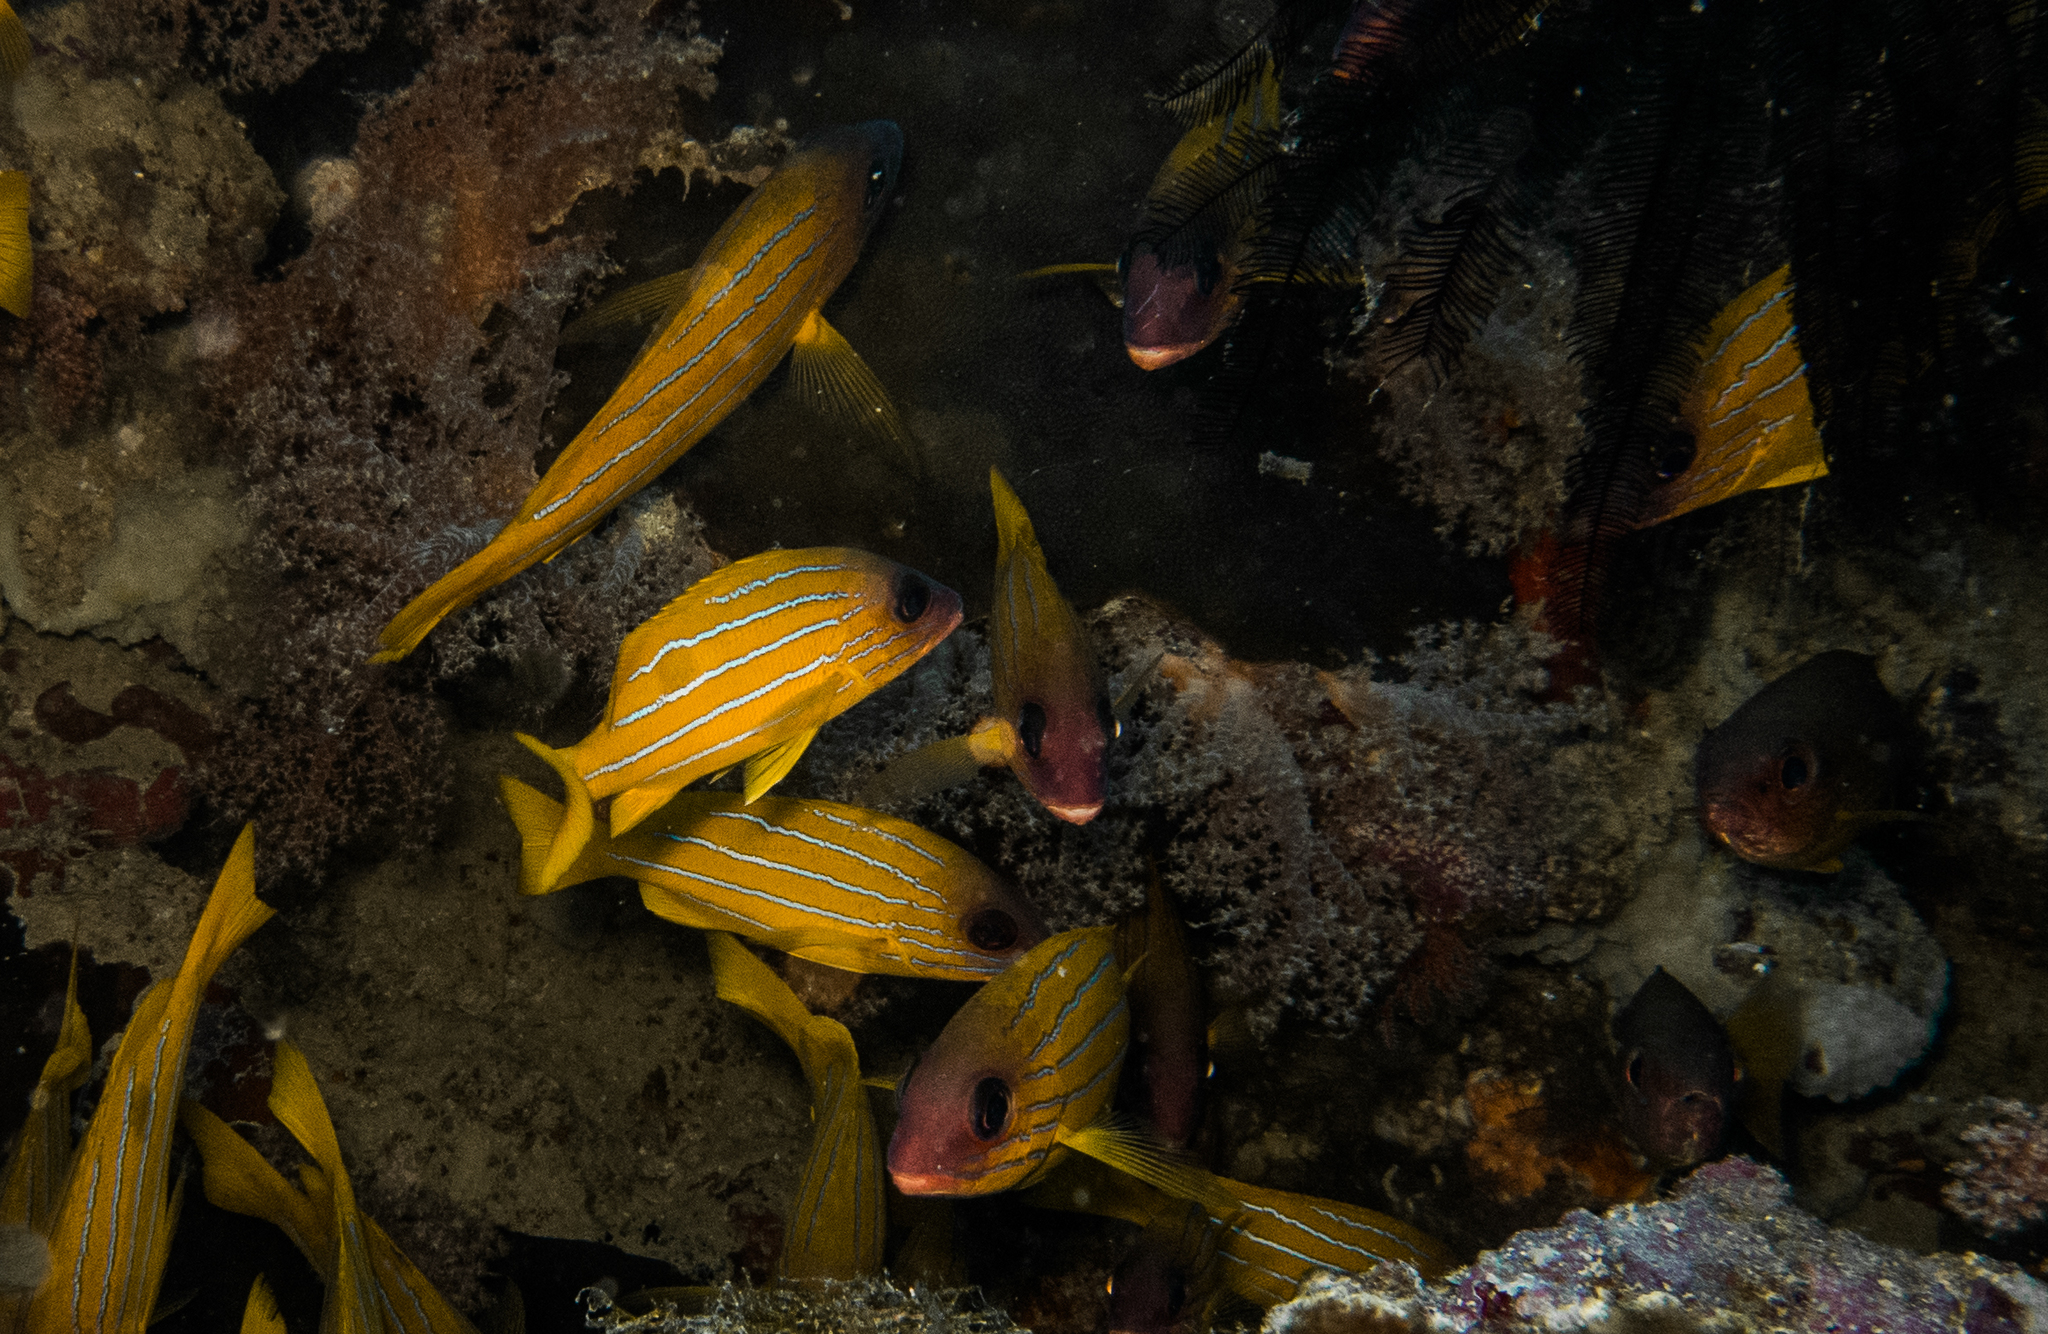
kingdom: Animalia
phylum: Chordata
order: Perciformes
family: Lutjanidae
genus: Lutjanus
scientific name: Lutjanus quinquelineatus
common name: Five-lined snapper
